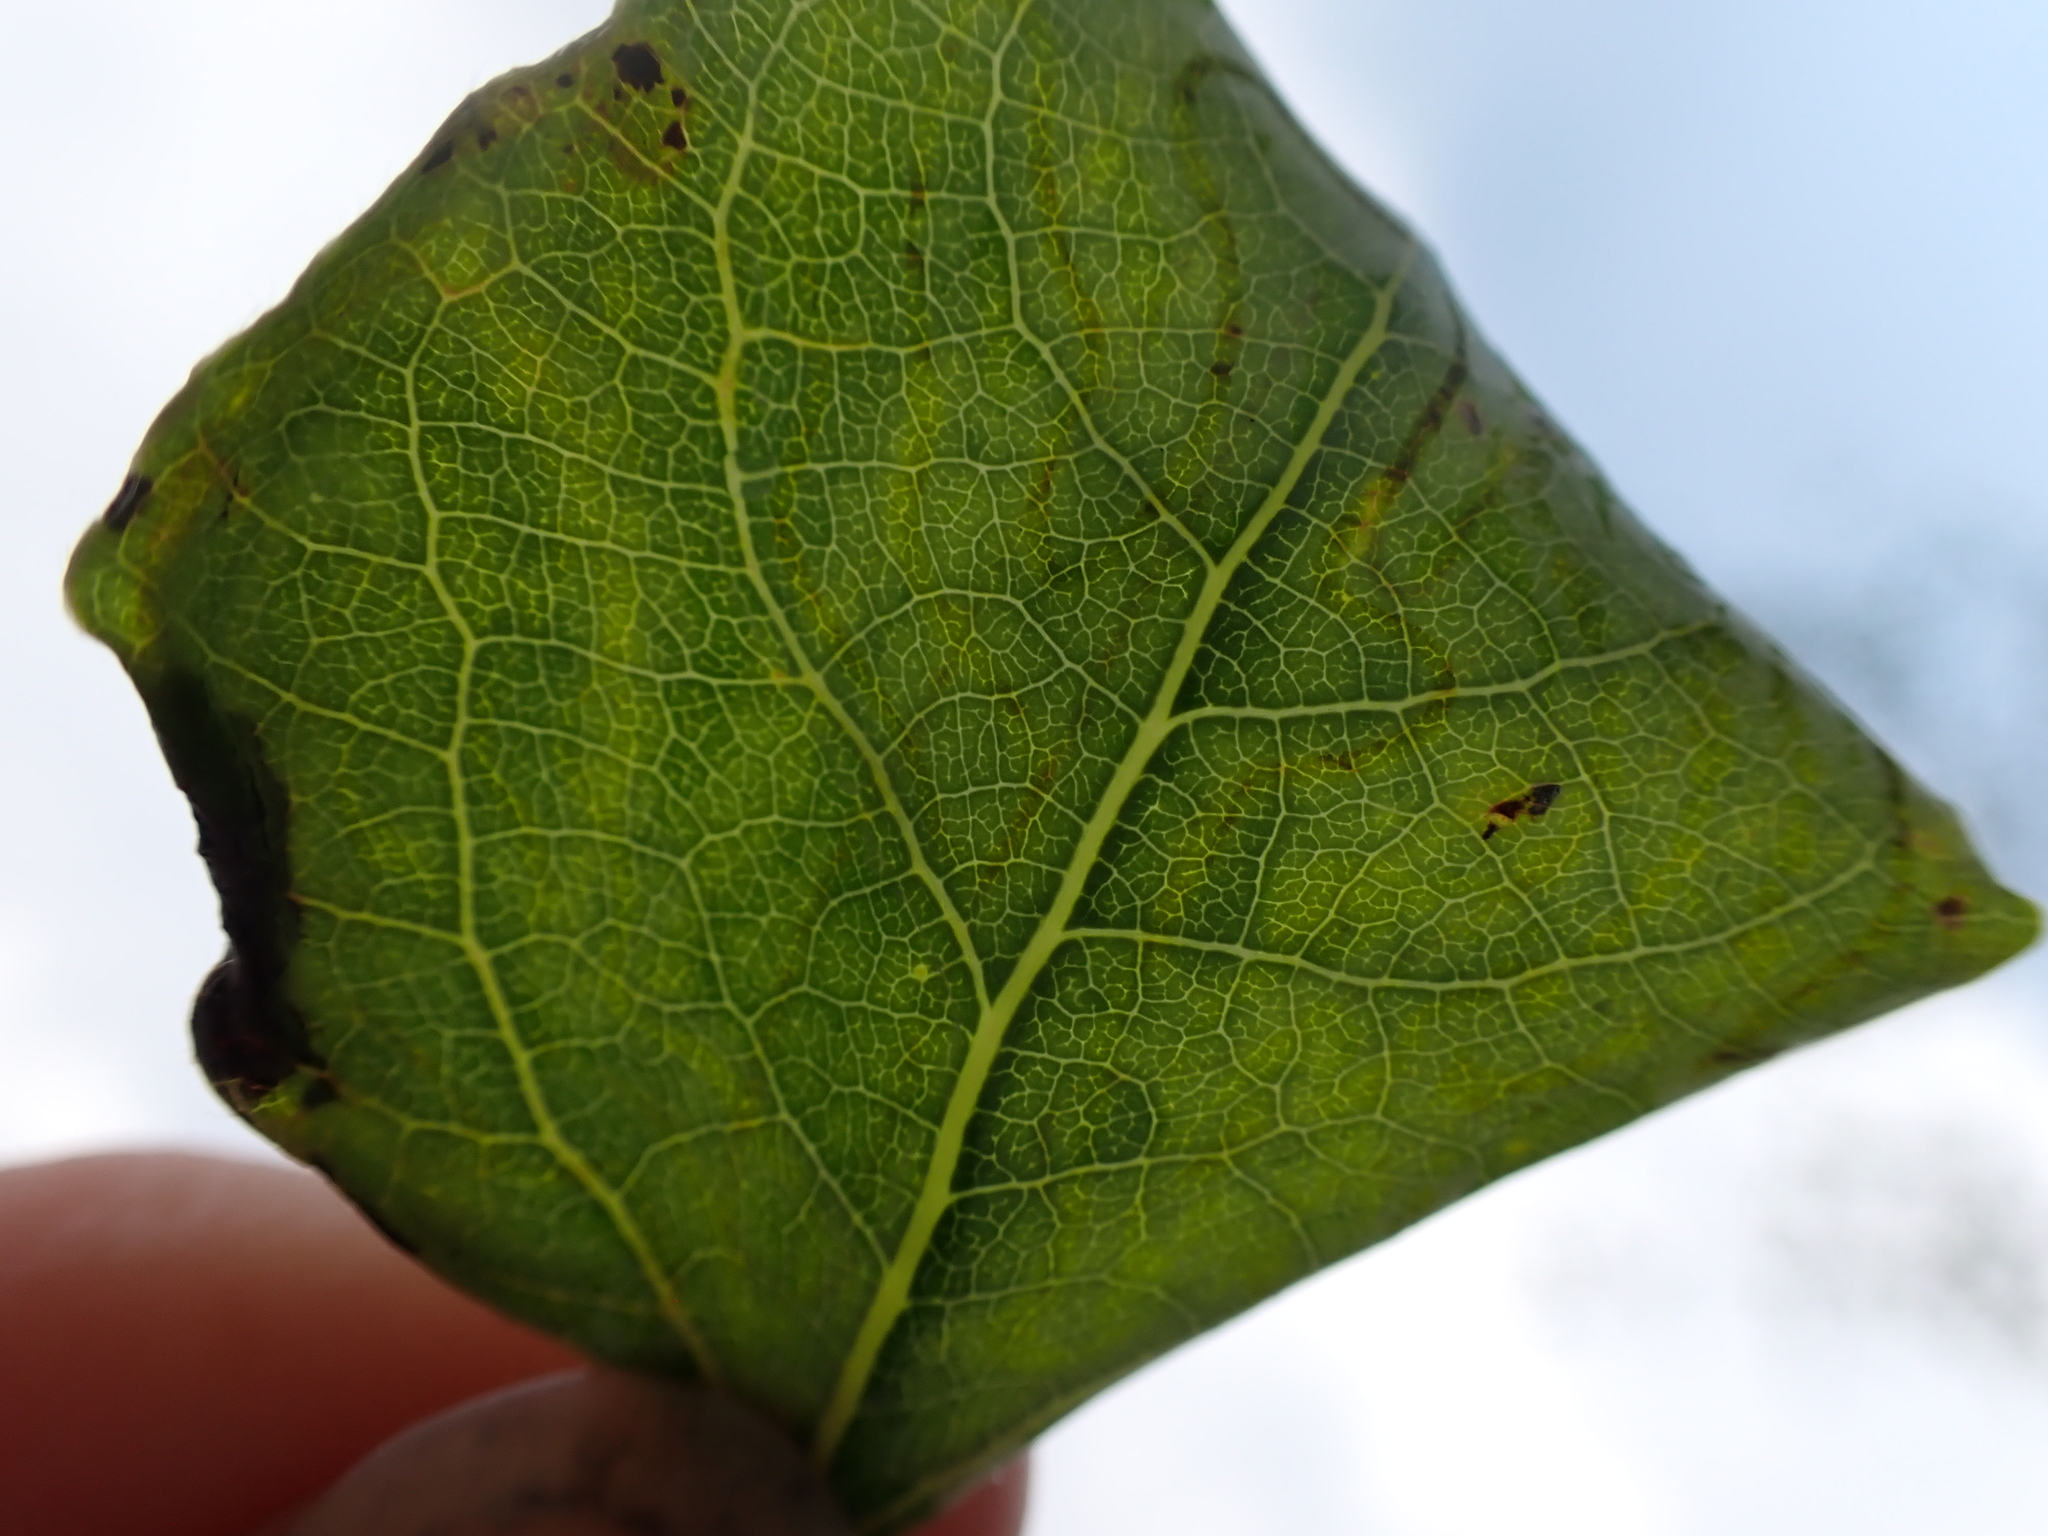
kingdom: Animalia
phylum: Arthropoda
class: Insecta
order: Lepidoptera
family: Gracillariidae
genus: Phyllocnistis
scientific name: Phyllocnistis populiella
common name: Aspen serpentine leafminer moth
